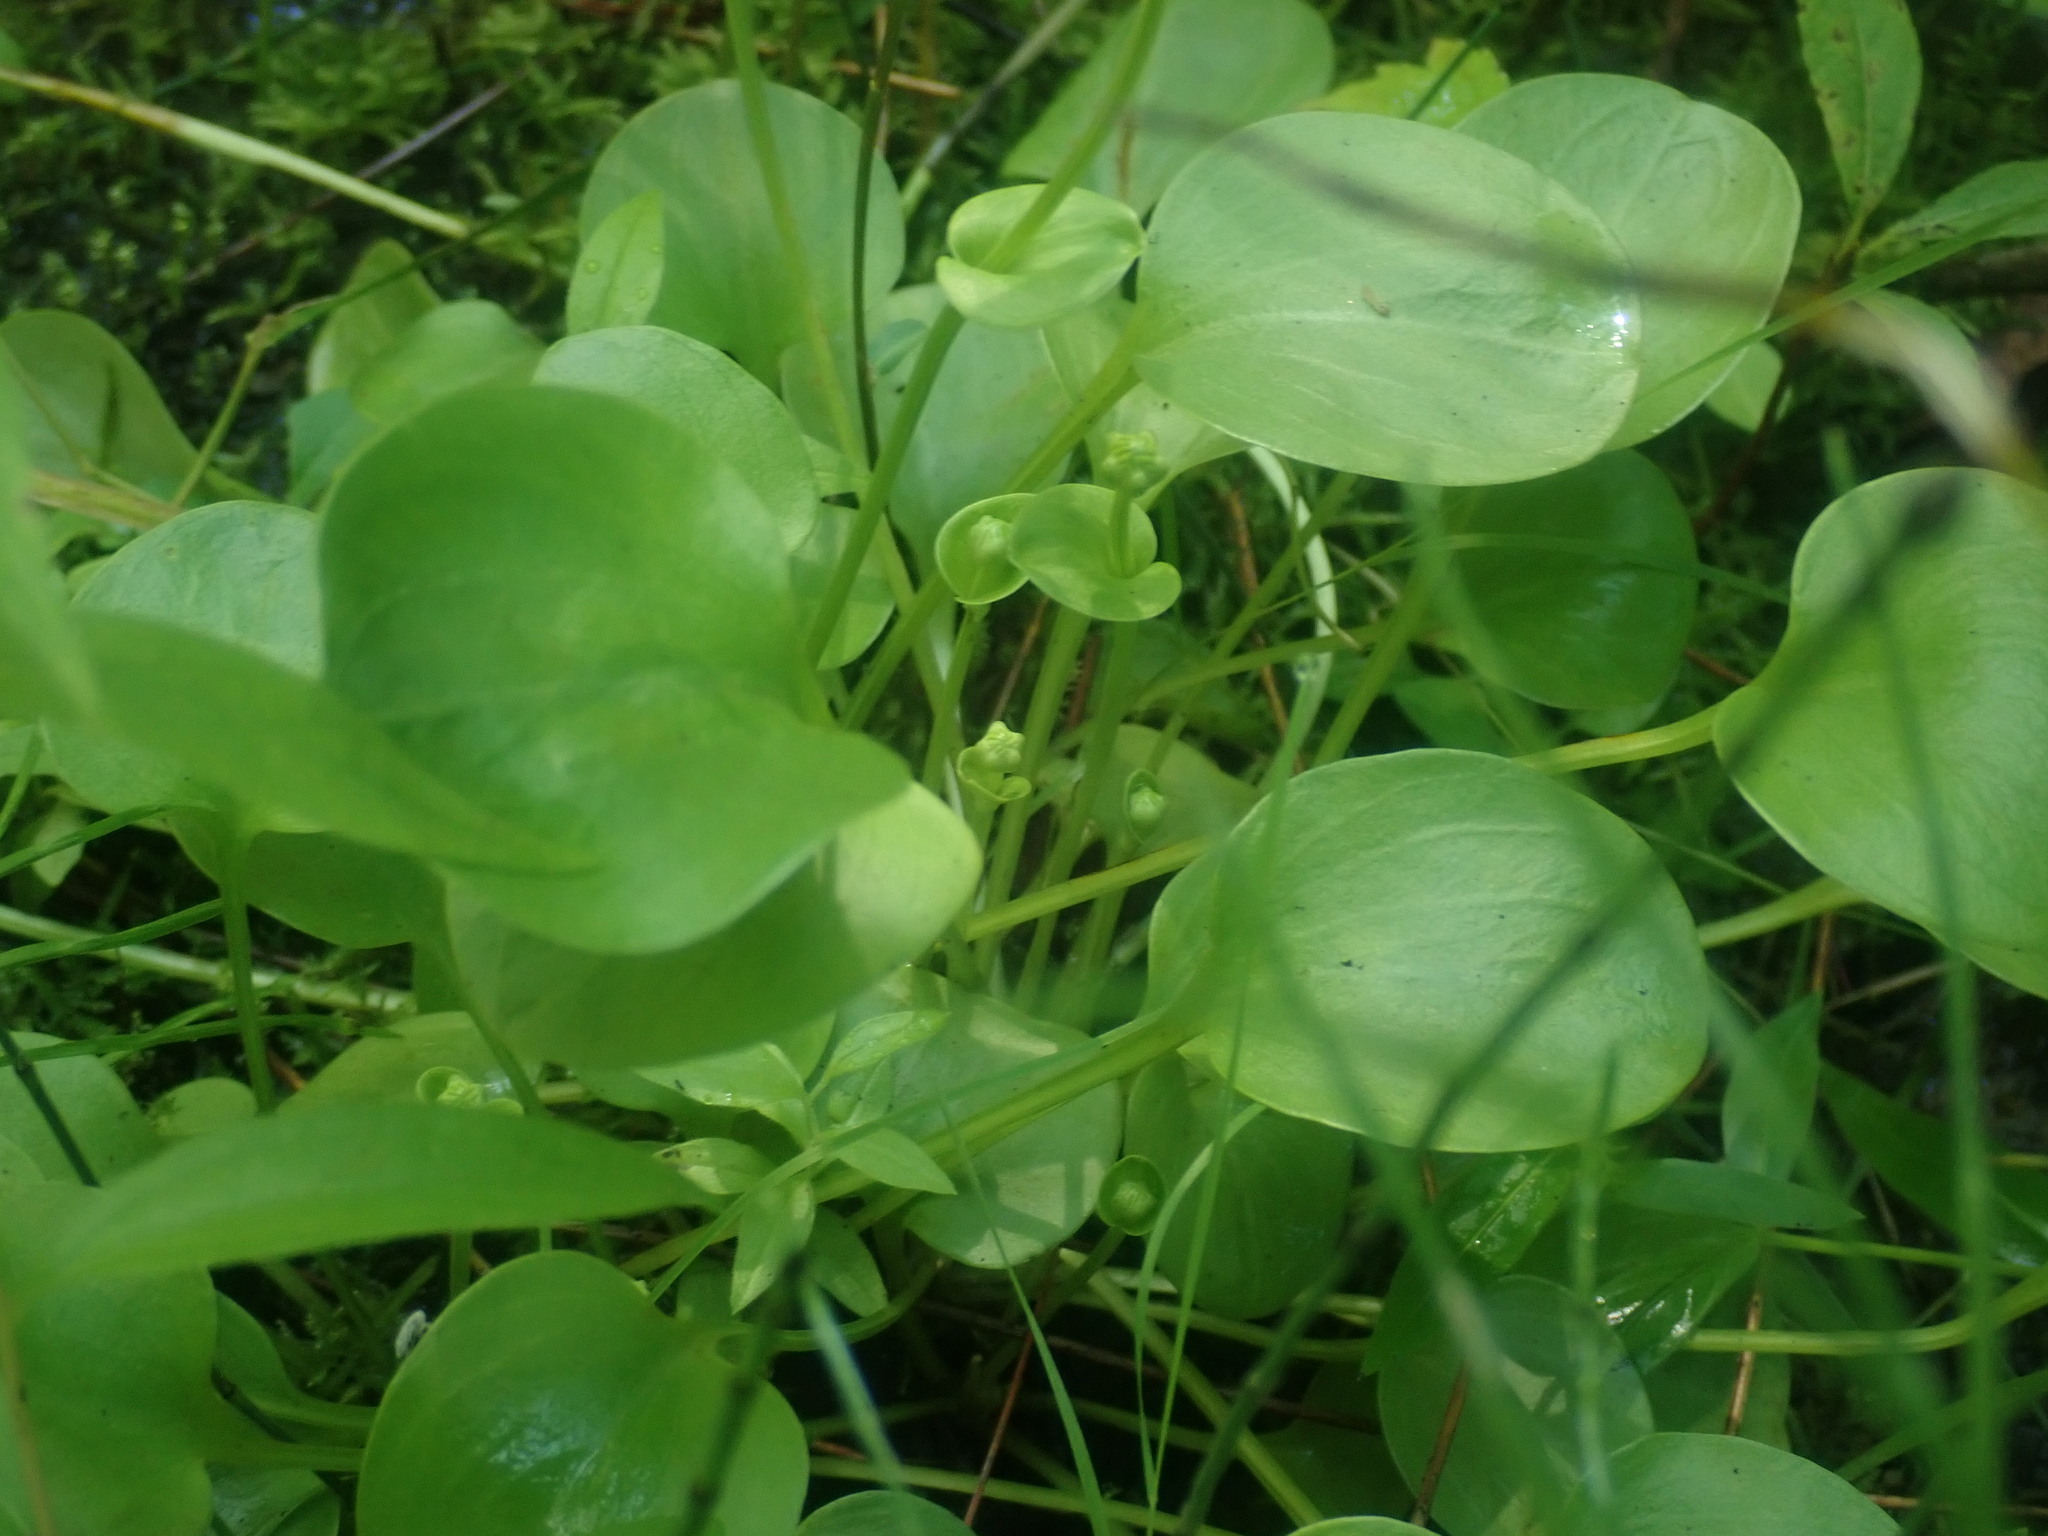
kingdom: Plantae
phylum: Tracheophyta
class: Magnoliopsida
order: Celastrales
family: Parnassiaceae
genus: Parnassia
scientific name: Parnassia glauca
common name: American grass-of-parnassus
